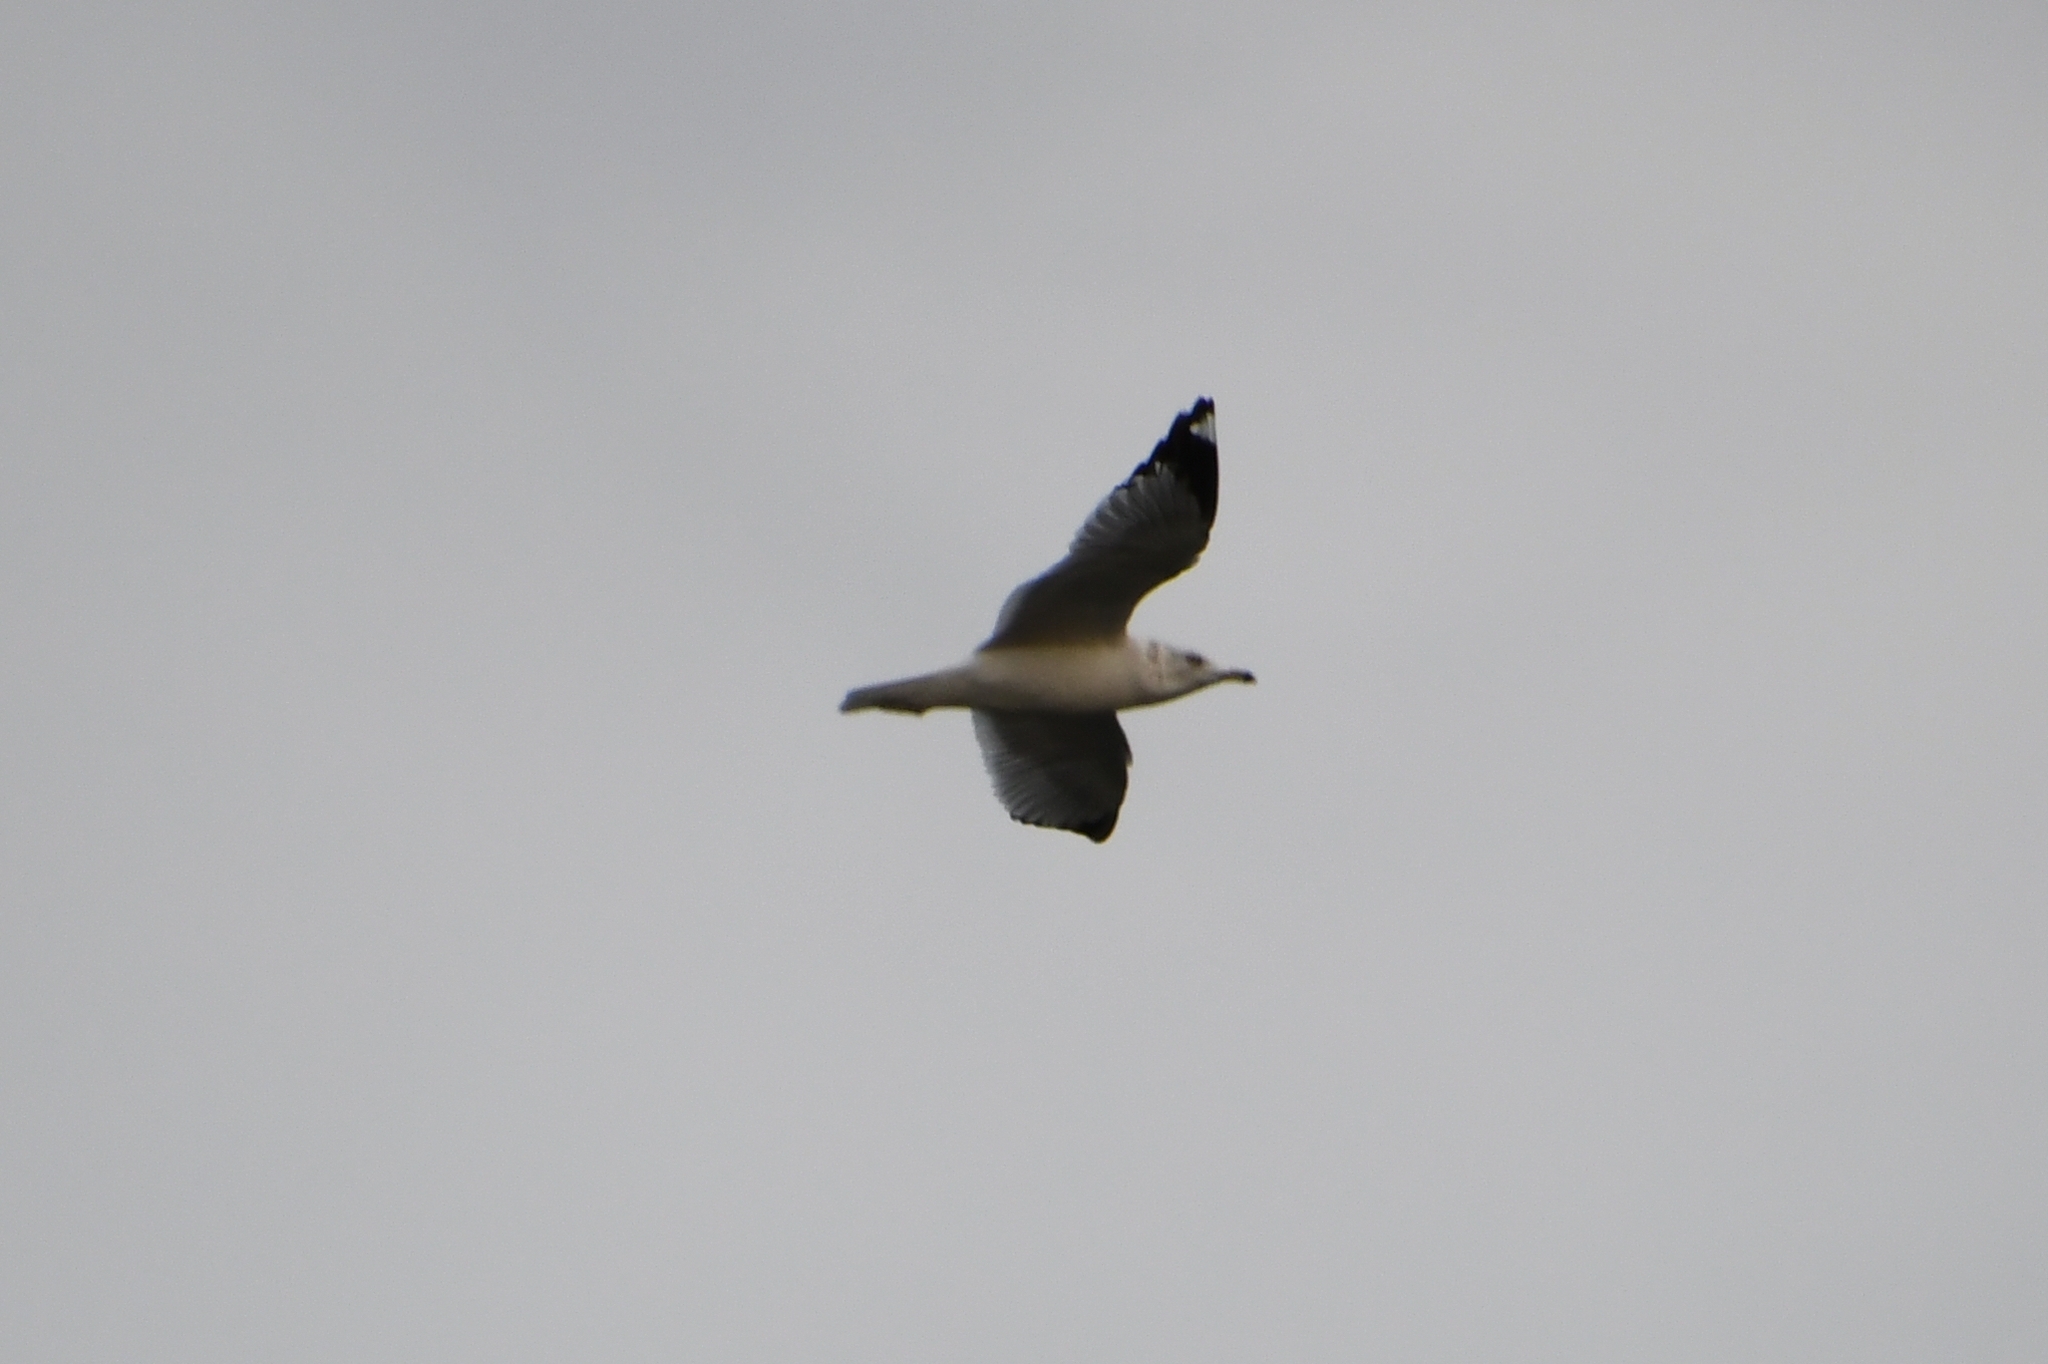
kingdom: Animalia
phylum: Chordata
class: Aves
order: Charadriiformes
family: Laridae
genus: Larus
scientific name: Larus delawarensis
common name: Ring-billed gull
